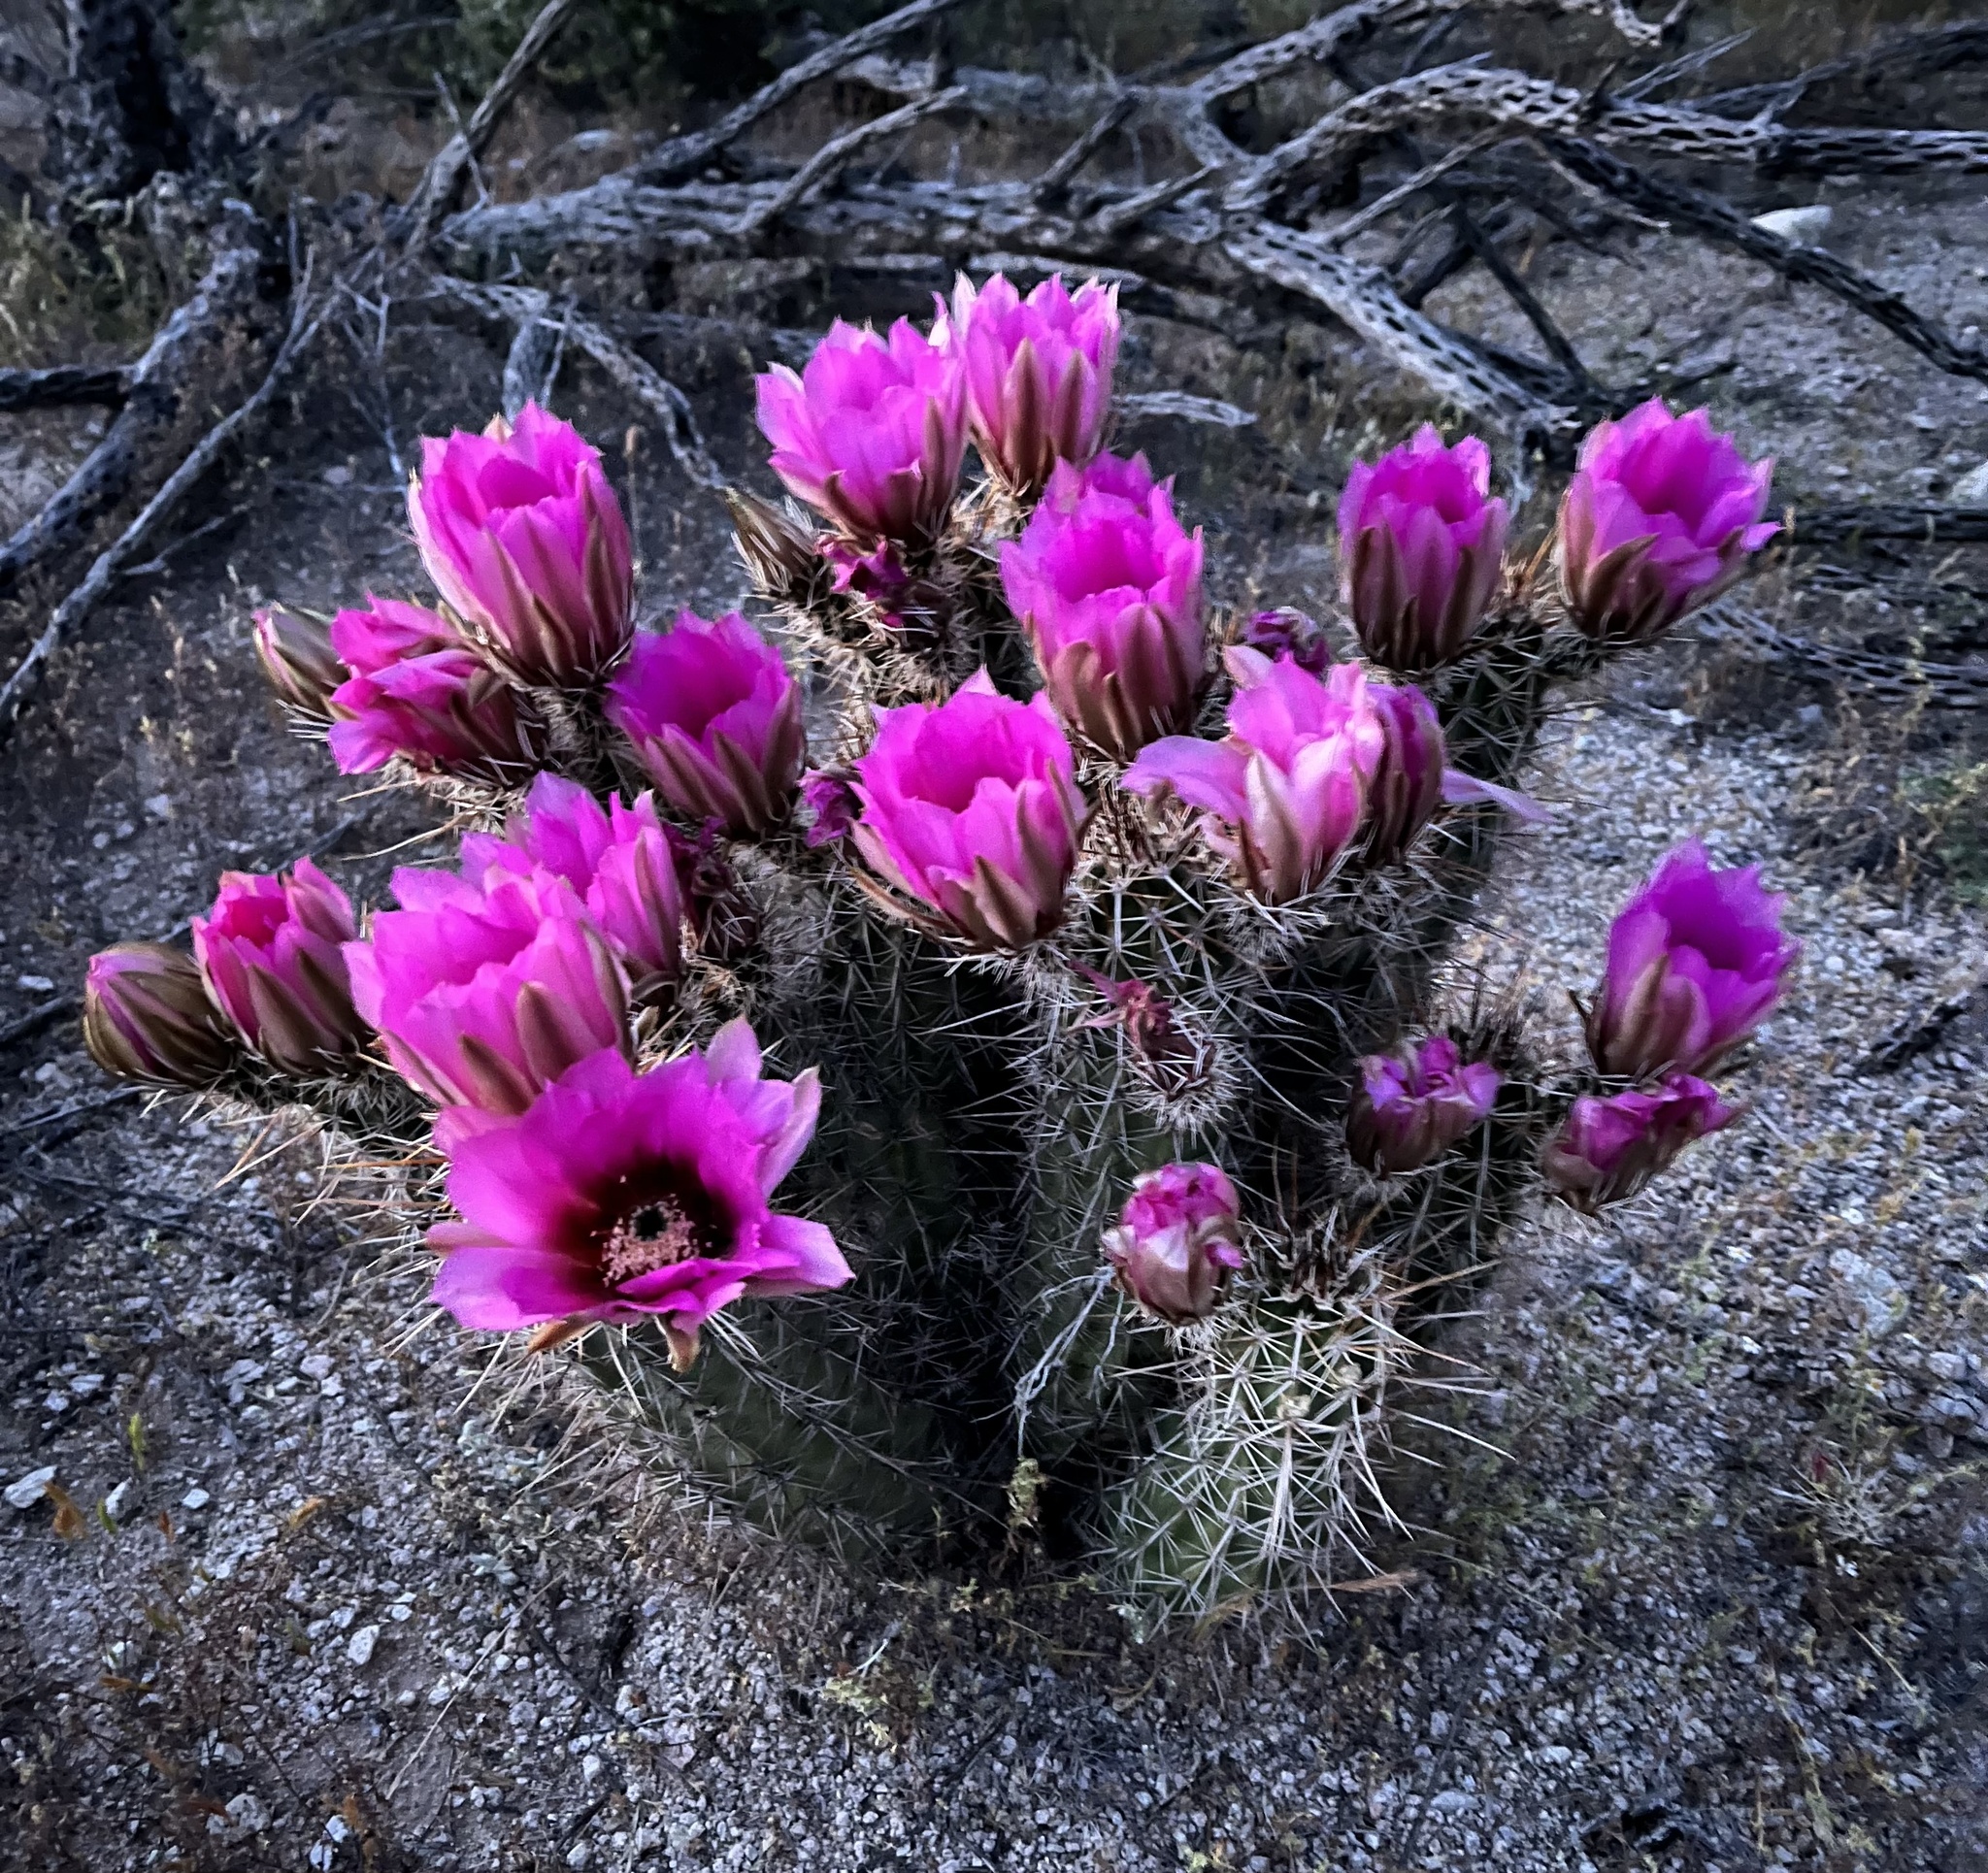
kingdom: Plantae
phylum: Tracheophyta
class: Magnoliopsida
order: Caryophyllales
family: Cactaceae
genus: Echinocereus
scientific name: Echinocereus fasciculatus
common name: Bundle hedgehog
